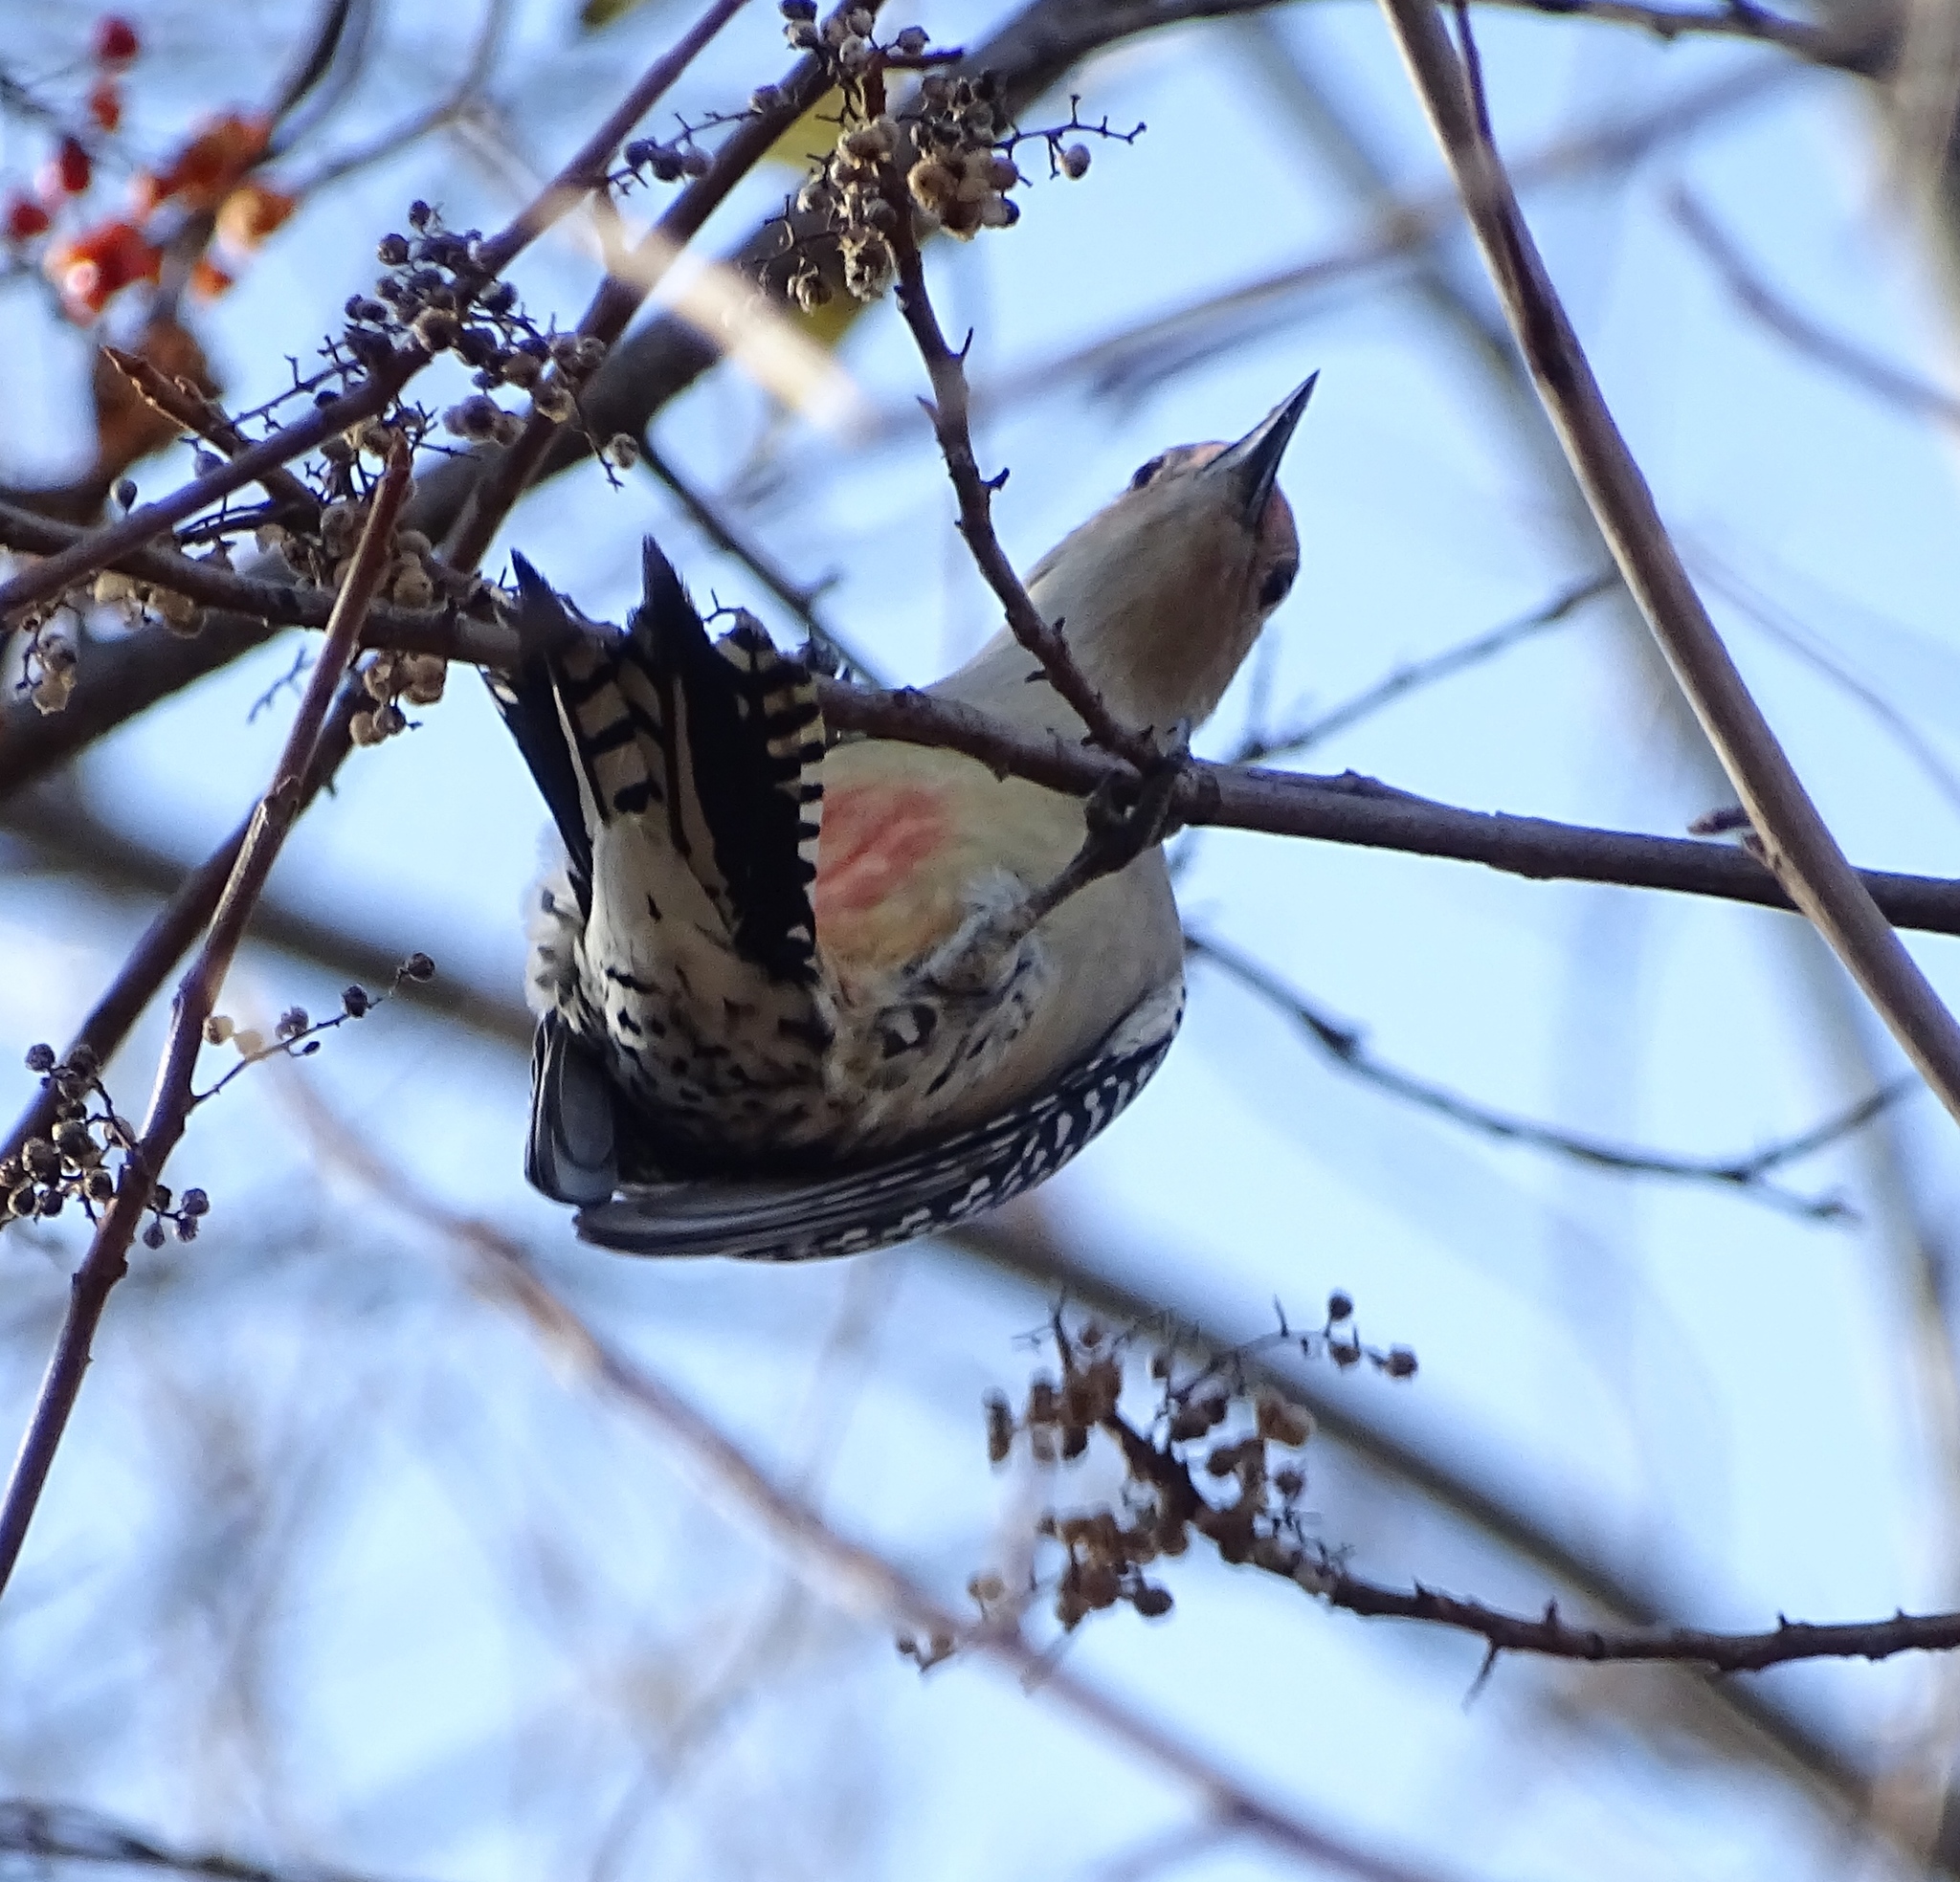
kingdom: Animalia
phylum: Chordata
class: Aves
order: Piciformes
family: Picidae
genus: Melanerpes
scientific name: Melanerpes carolinus
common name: Red-bellied woodpecker
